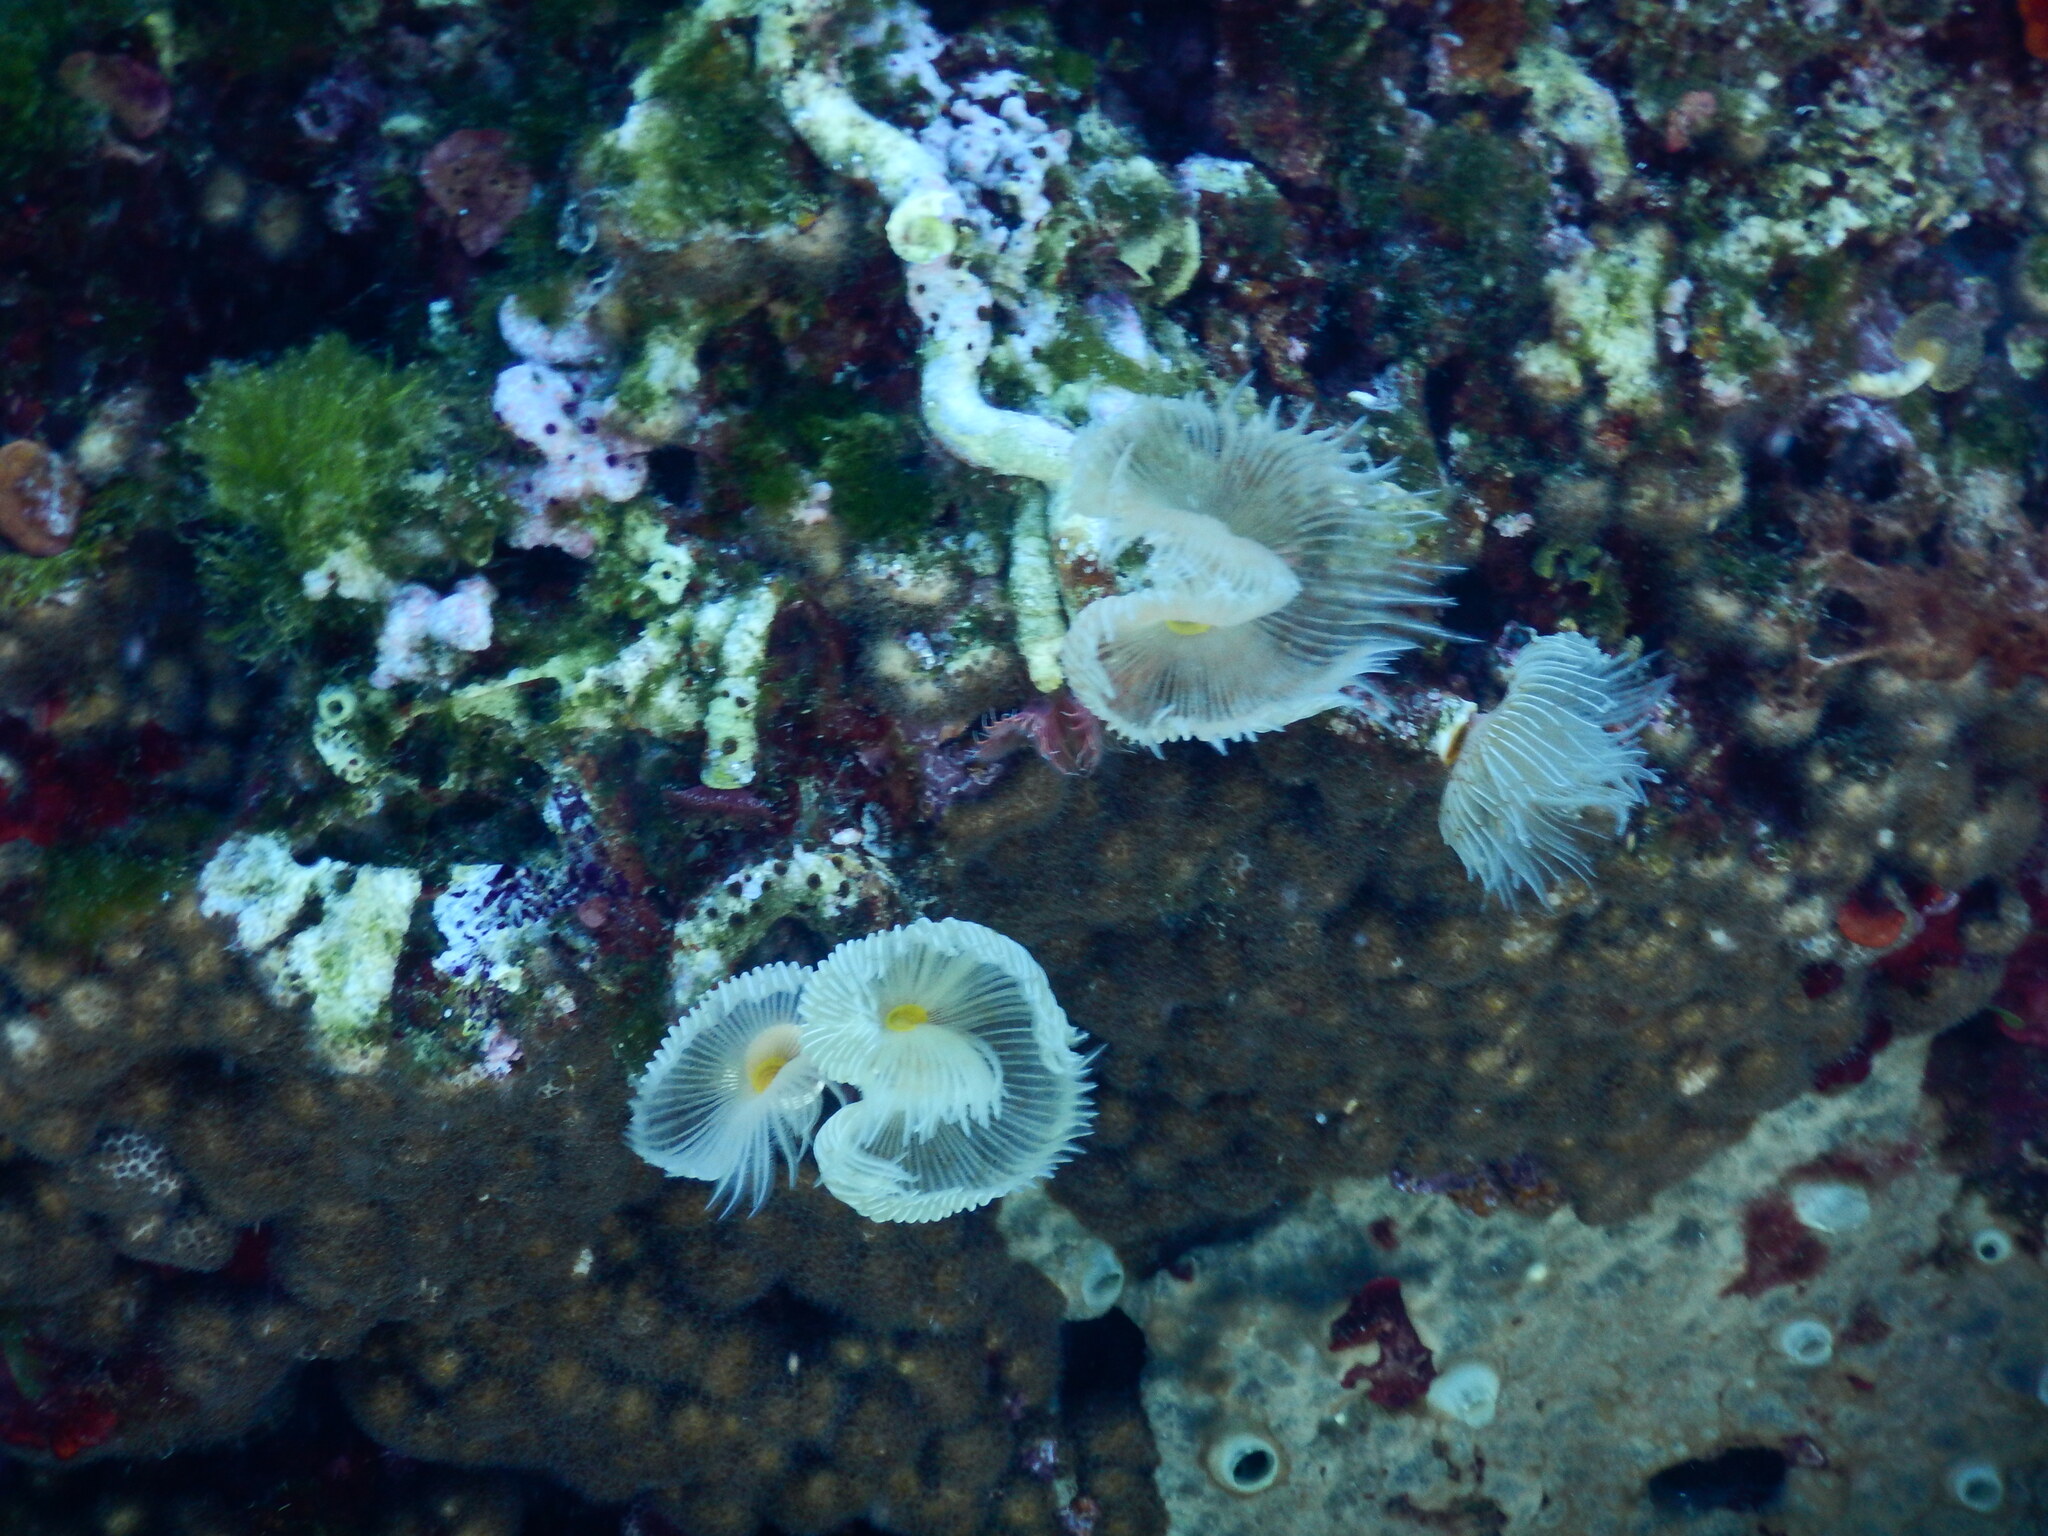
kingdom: Animalia
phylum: Annelida
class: Polychaeta
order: Sabellida
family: Serpulidae
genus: Protula
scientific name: Protula tubularia
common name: Red-spotted horseshoe
